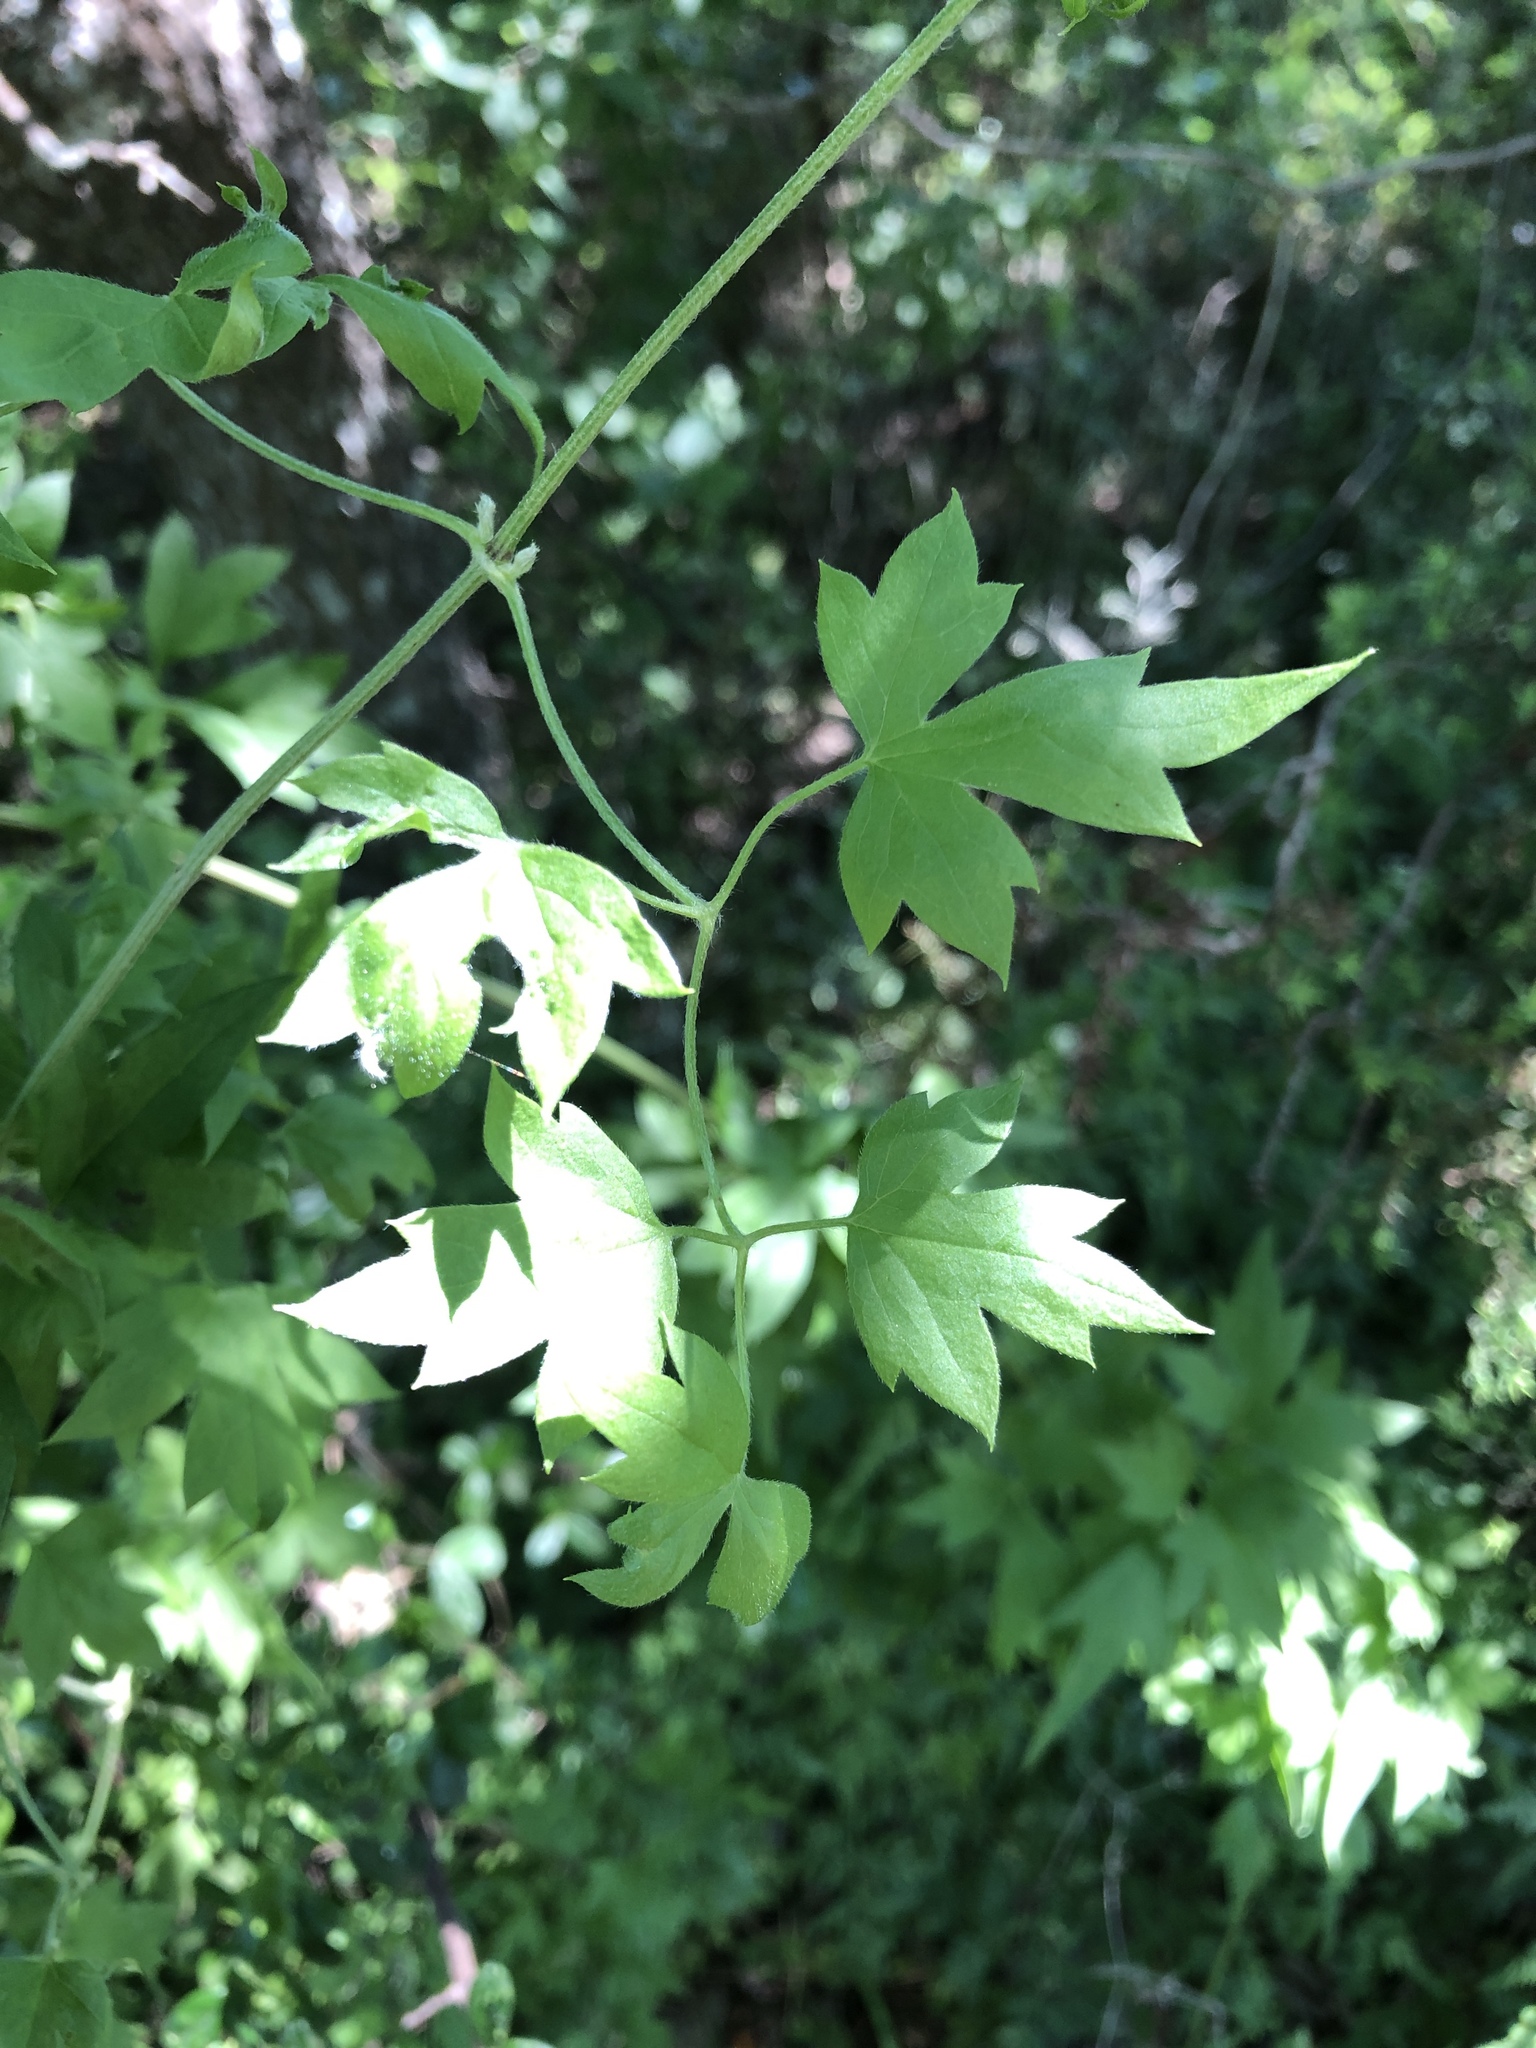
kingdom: Plantae
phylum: Tracheophyta
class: Magnoliopsida
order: Ranunculales
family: Ranunculaceae
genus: Clematis
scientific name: Clematis drummondii
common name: Texas virgin's bower
